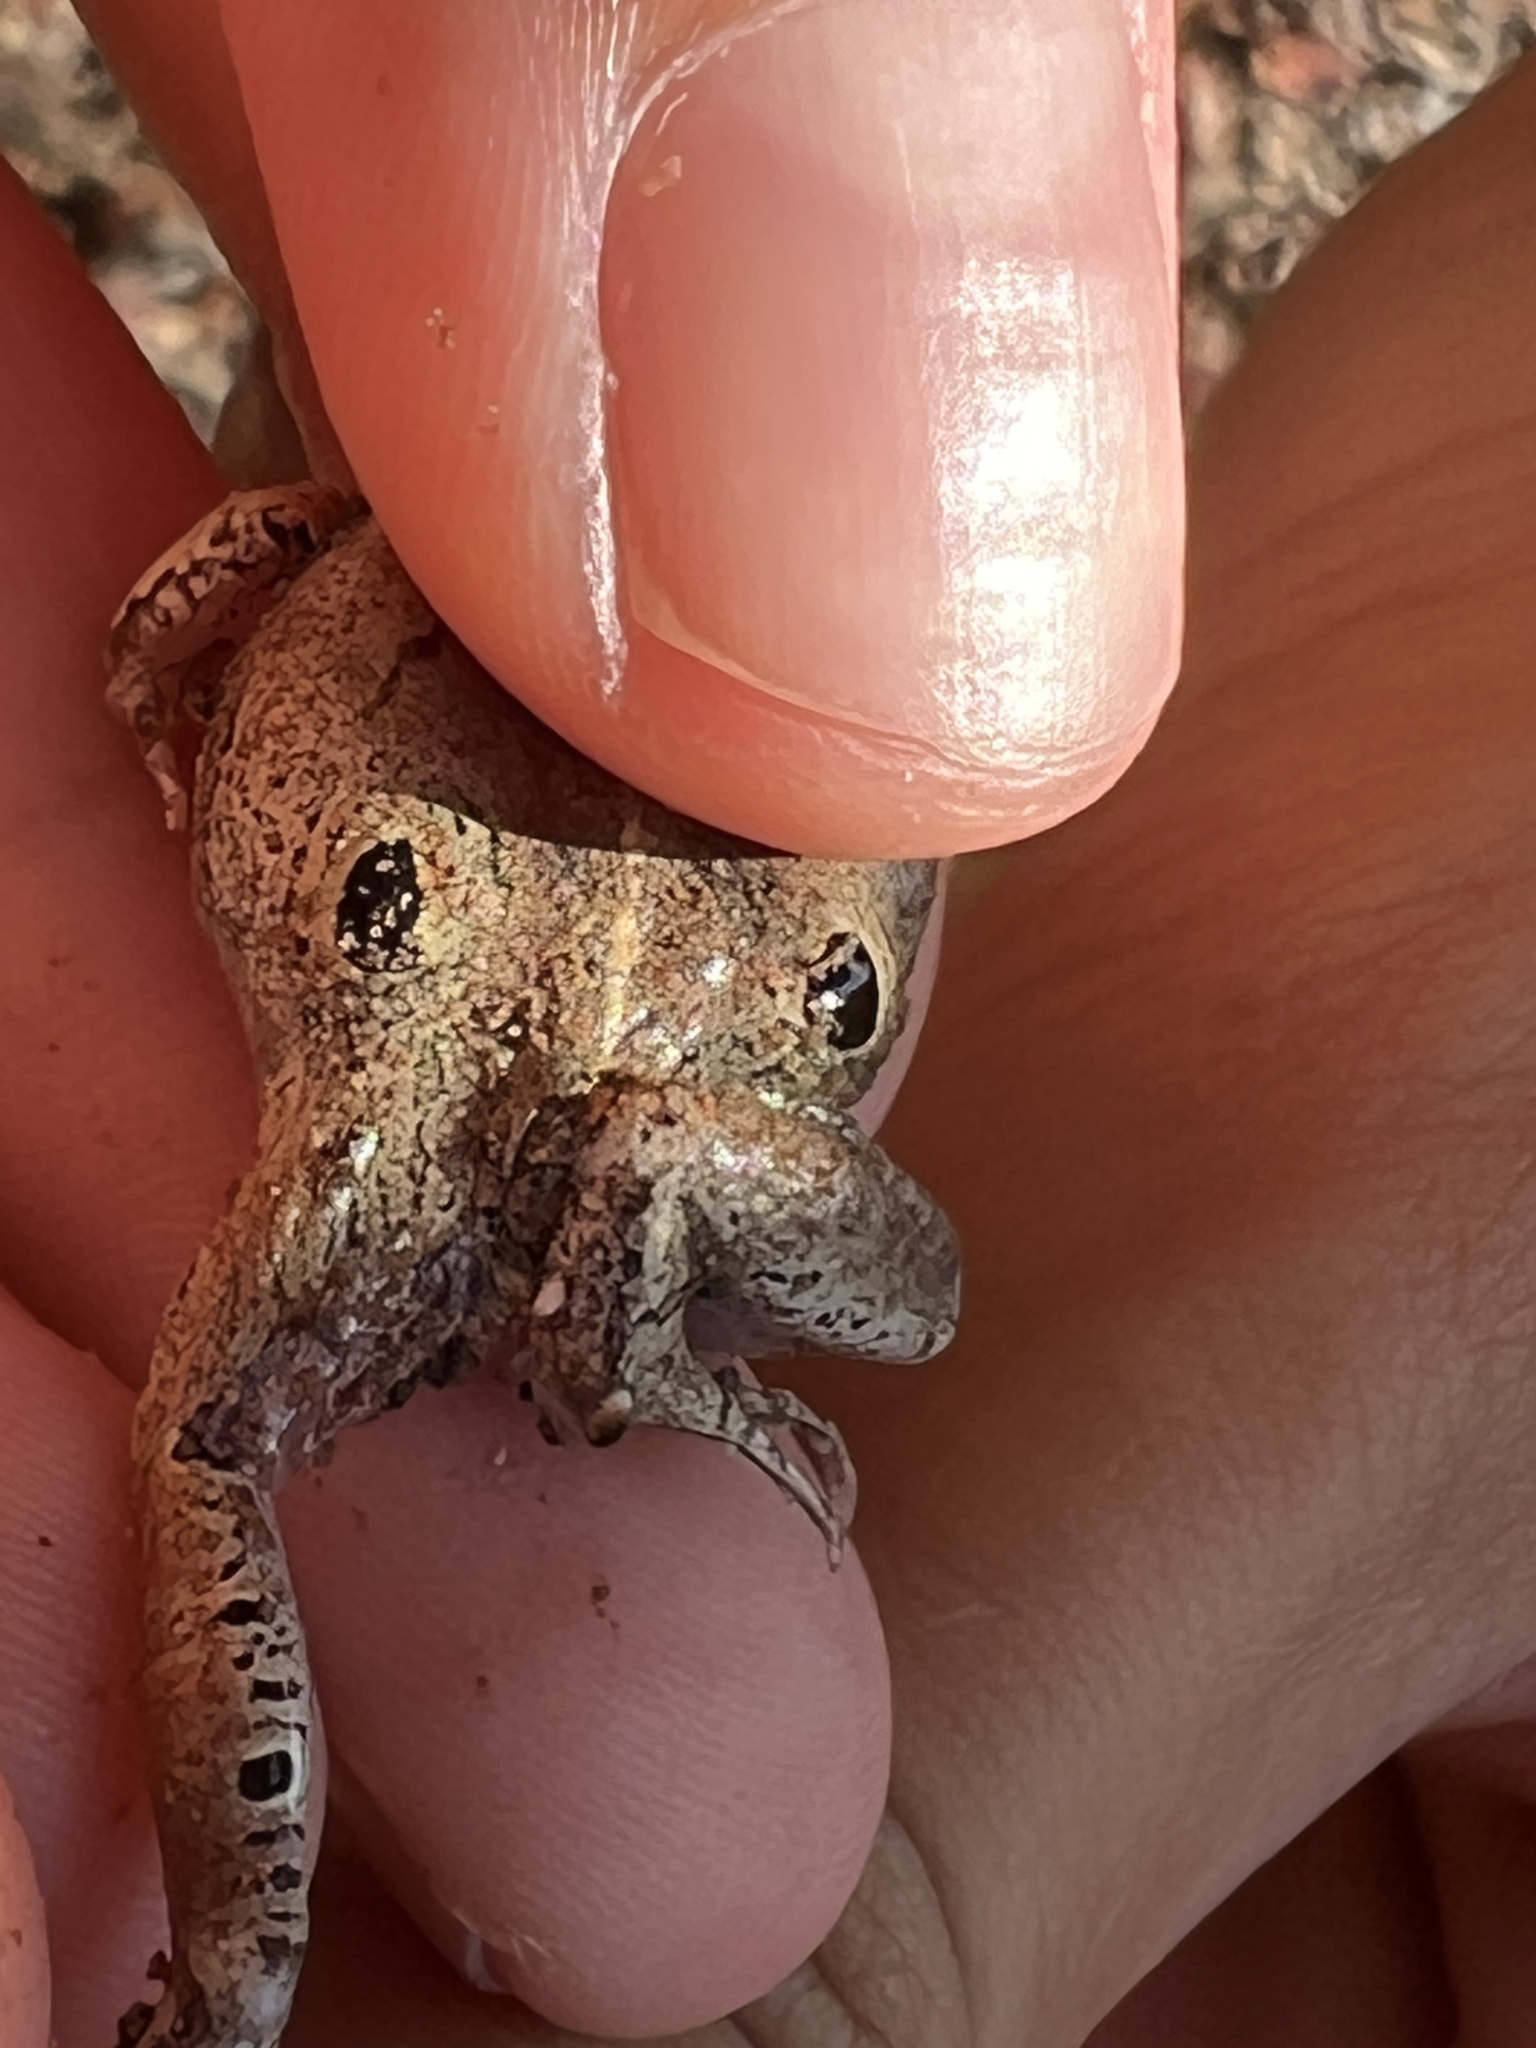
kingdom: Animalia
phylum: Chordata
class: Amphibia
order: Anura
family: Leptodactylidae
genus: Physalaemus
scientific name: Physalaemus nattereri
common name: Cuyaba dwarf frog
